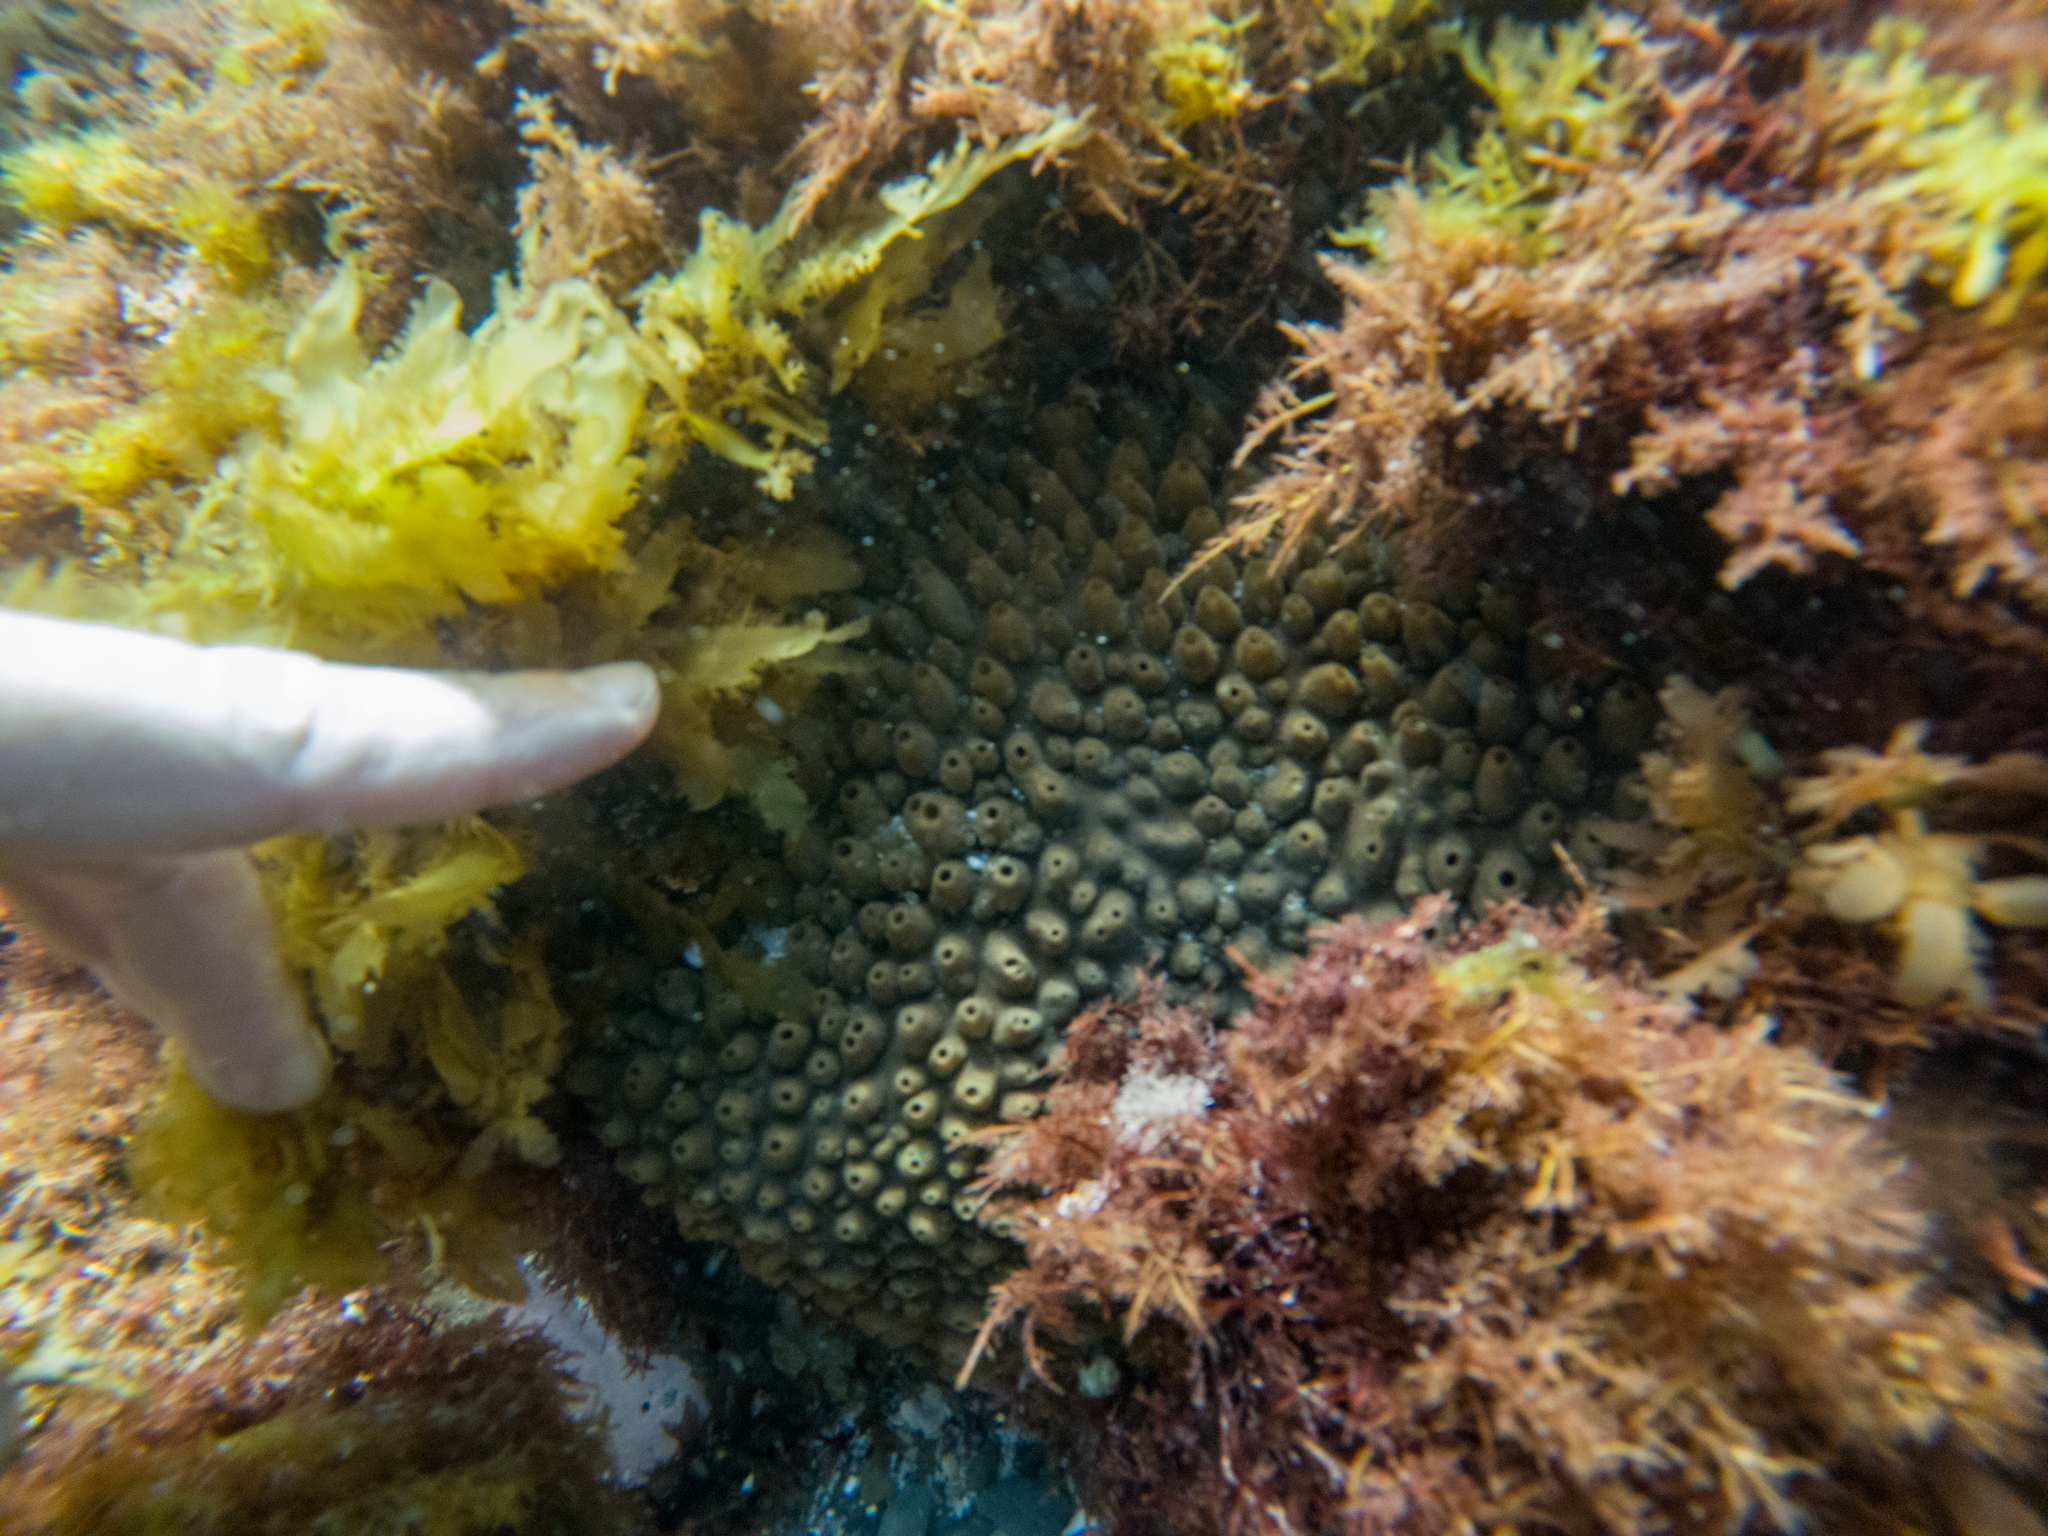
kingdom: Animalia
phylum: Porifera
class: Demospongiae
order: Polymastiida
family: Polymastiidae
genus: Polymastia
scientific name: Polymastia fusca
